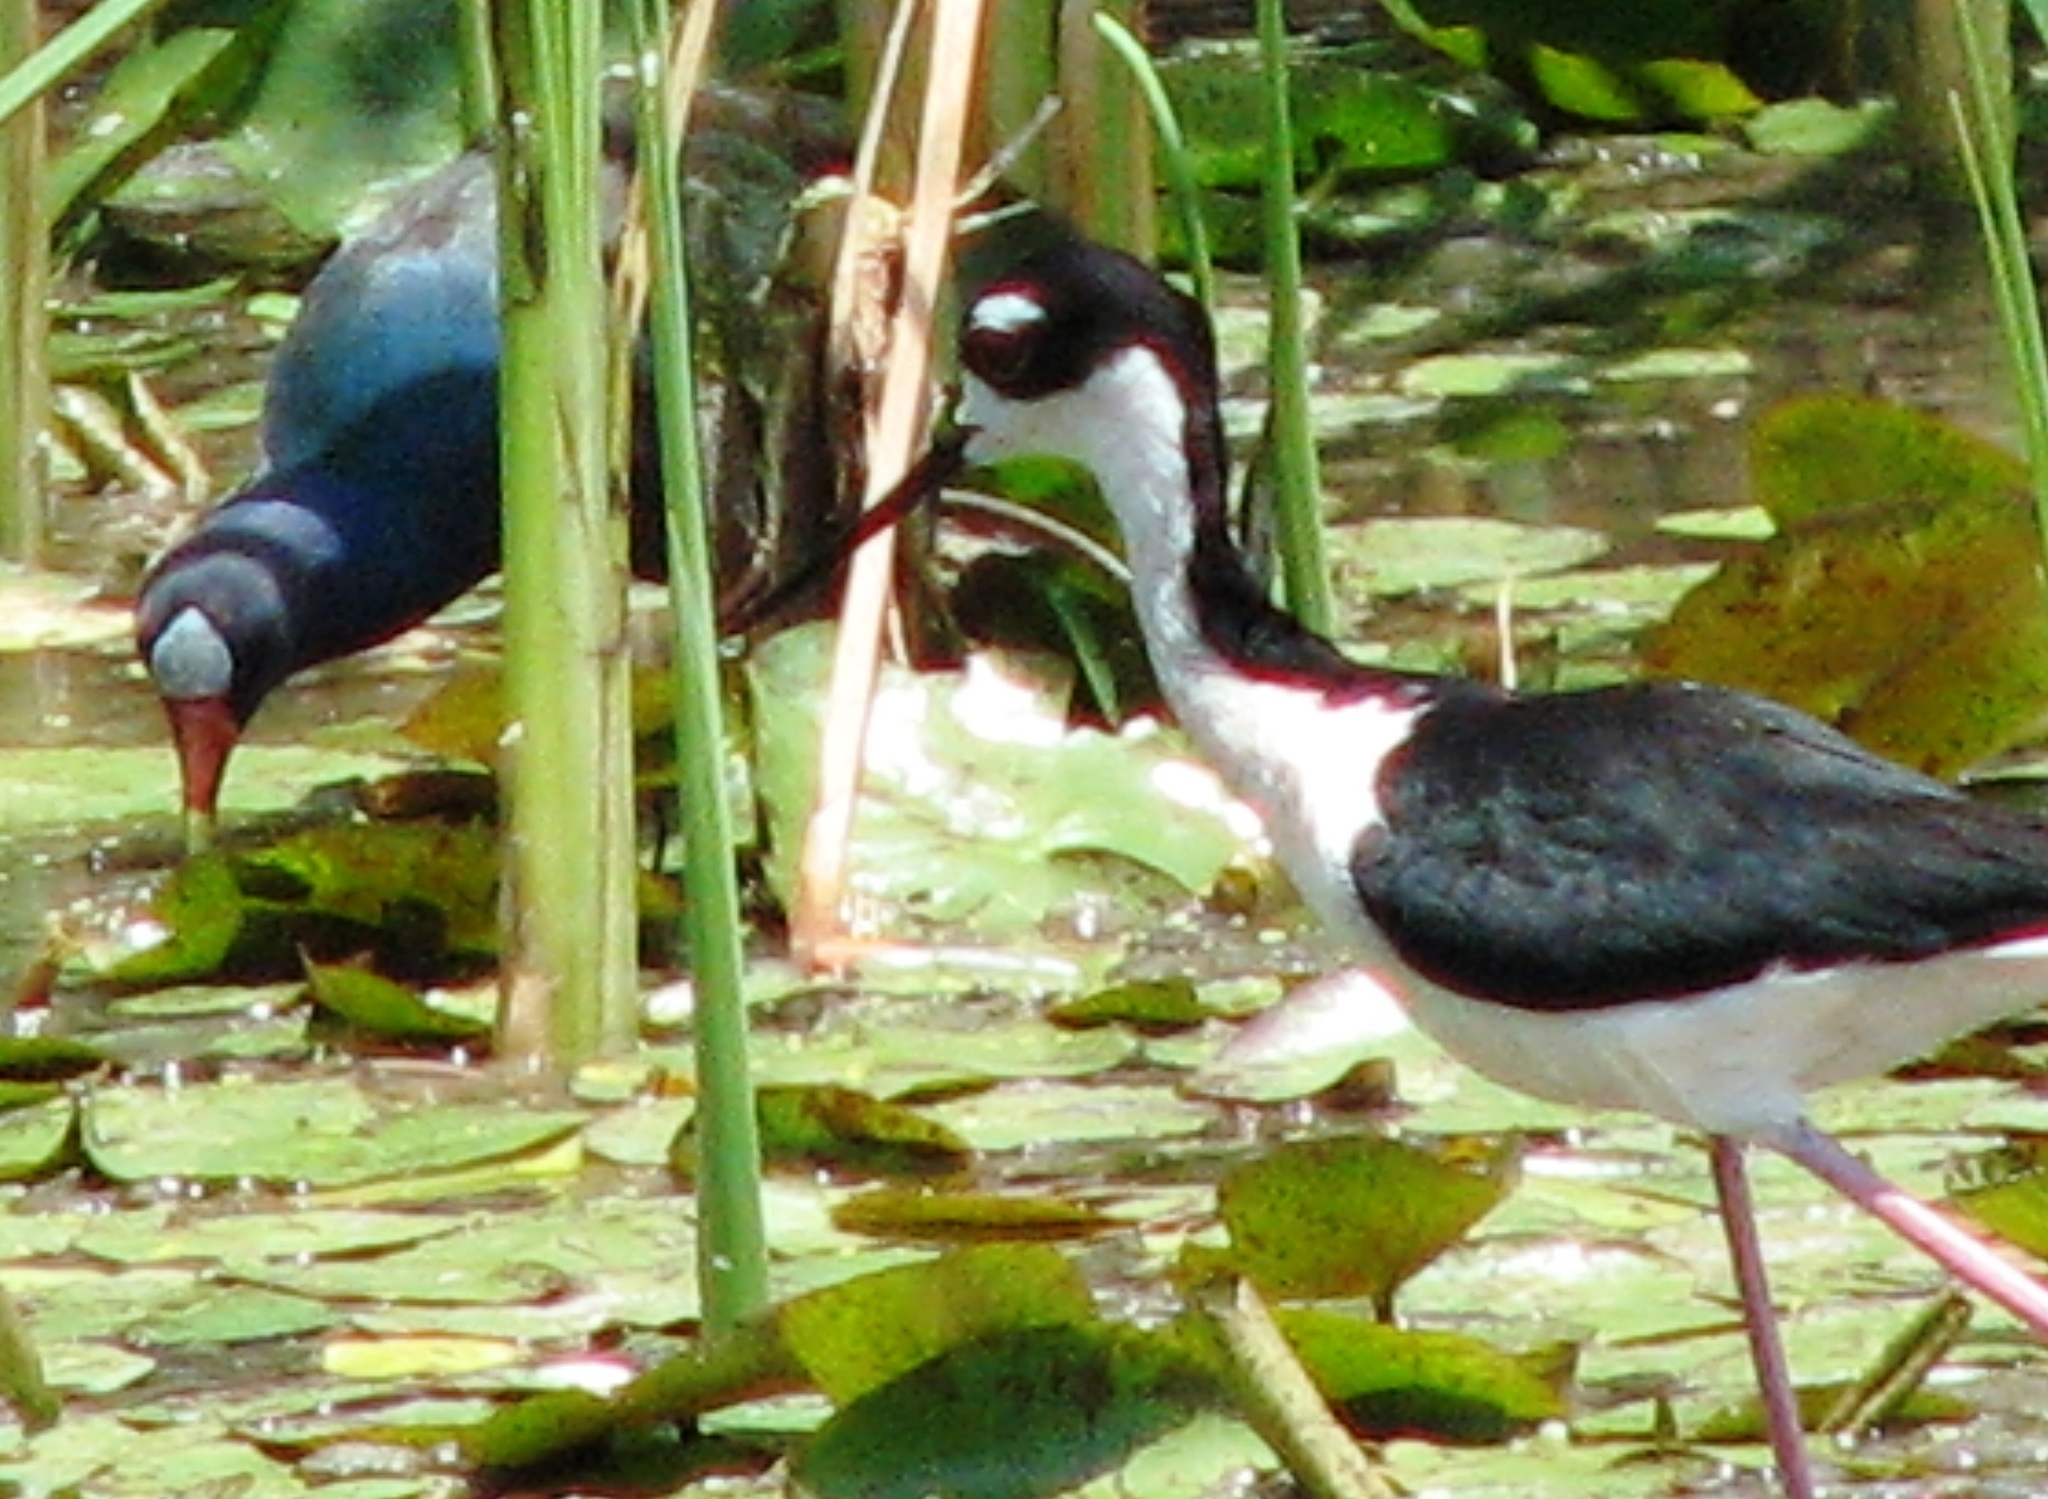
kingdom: Animalia
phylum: Chordata
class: Aves
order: Gruiformes
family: Rallidae
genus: Porphyrio
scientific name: Porphyrio martinica
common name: Purple gallinule
